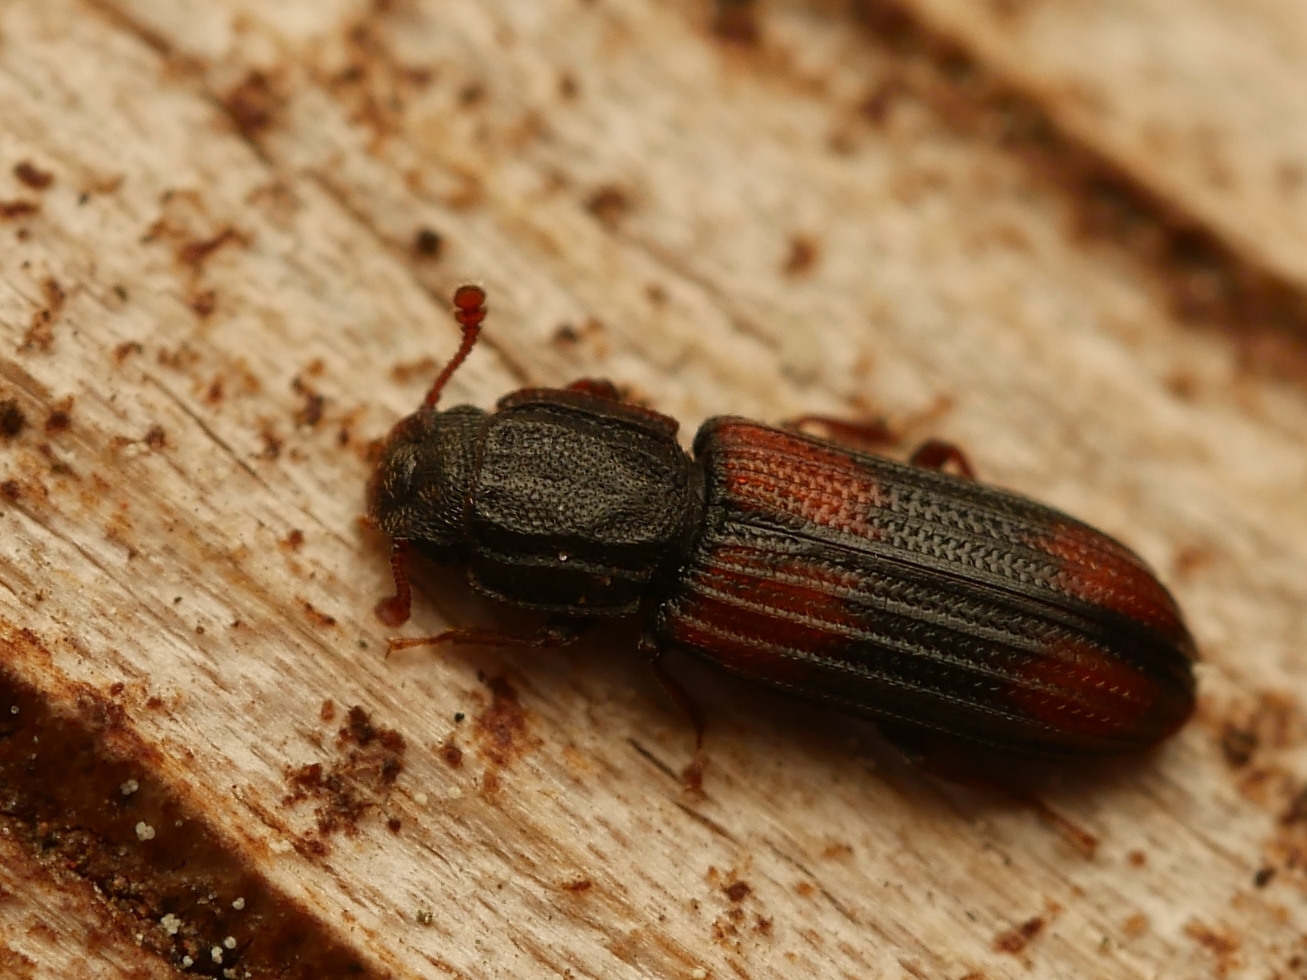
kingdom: Animalia
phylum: Arthropoda
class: Insecta
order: Coleoptera
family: Zopheridae
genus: Bitoma
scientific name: Bitoma crenata
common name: Bark beetle
